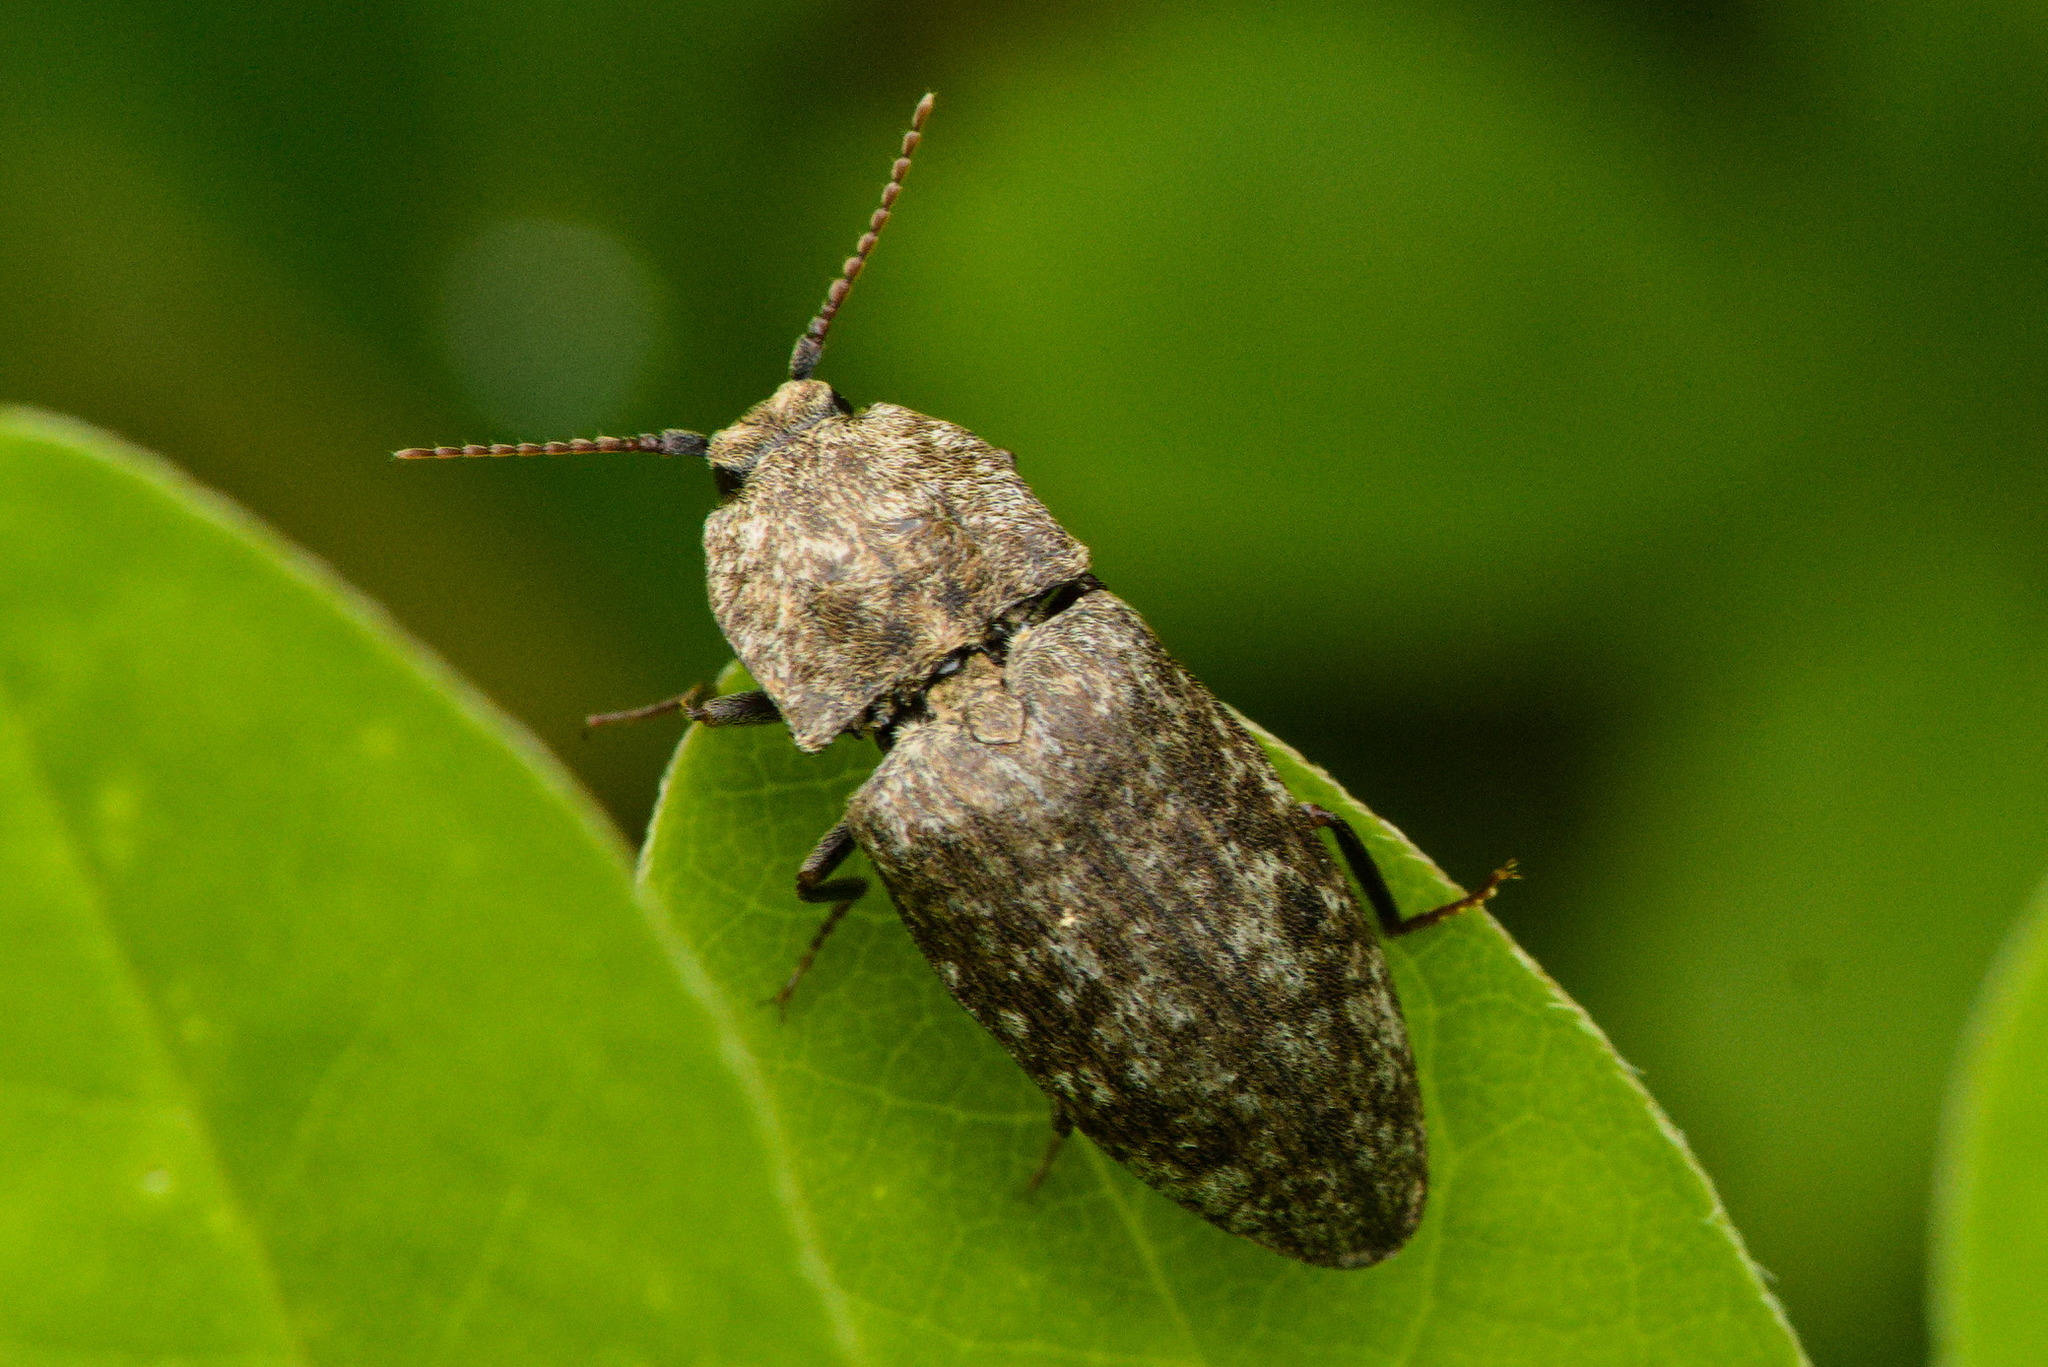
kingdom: Animalia
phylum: Arthropoda
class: Insecta
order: Coleoptera
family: Elateridae
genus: Agrypnus
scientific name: Agrypnus murinus
